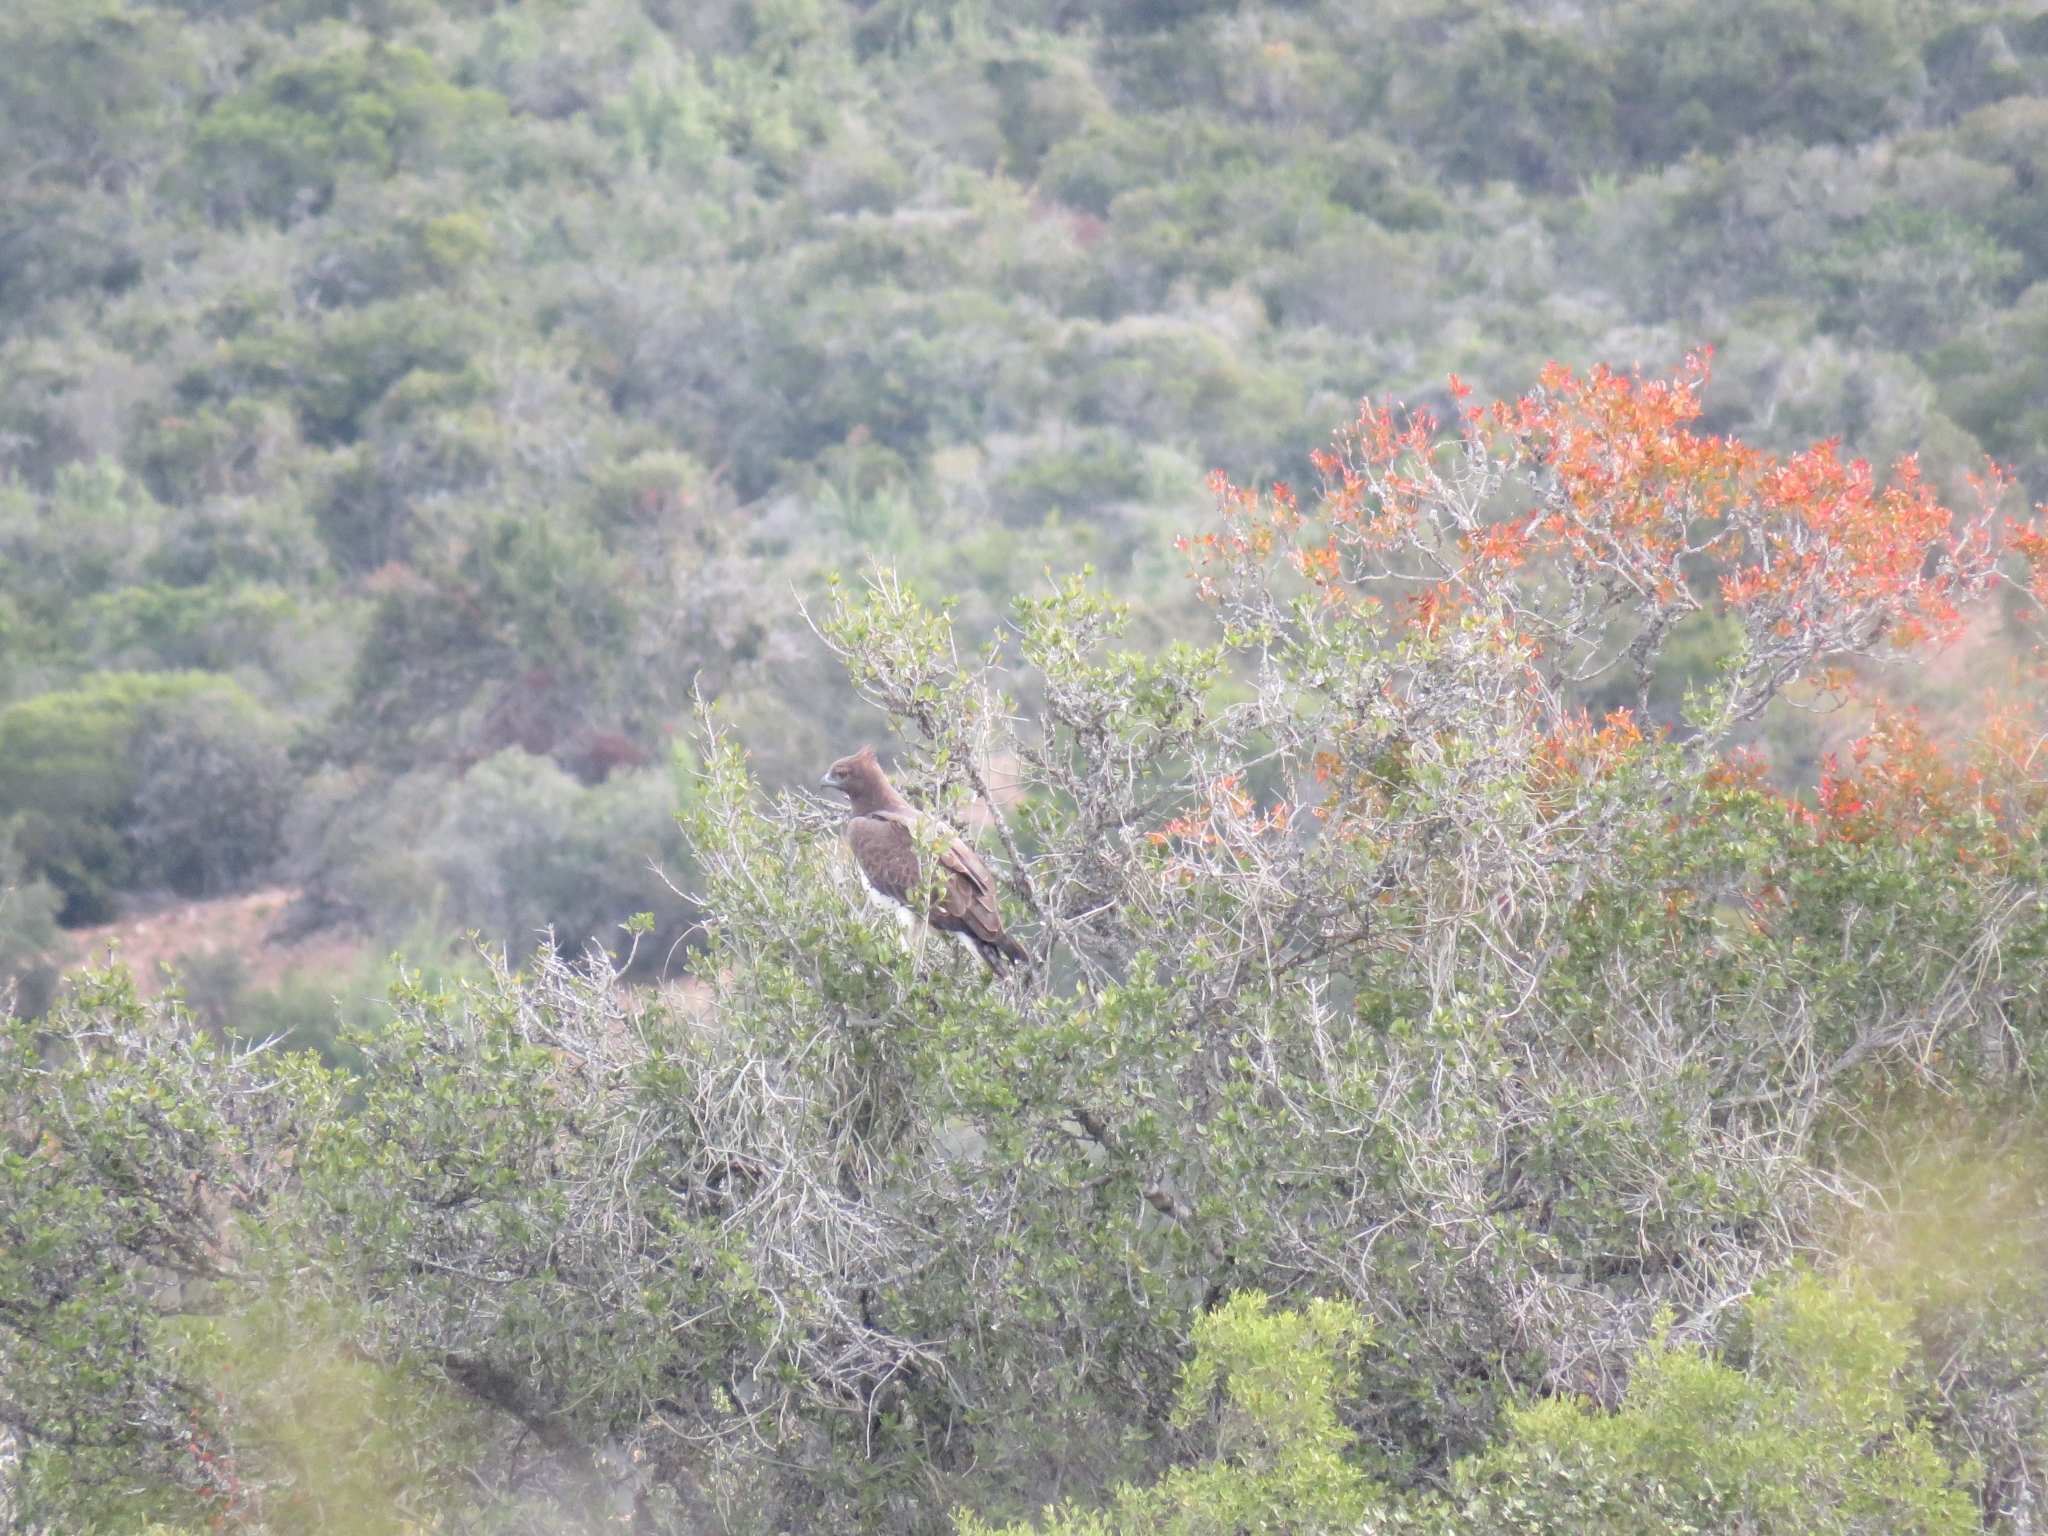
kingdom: Animalia
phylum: Chordata
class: Aves
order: Accipitriformes
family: Accipitridae
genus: Polemaetus
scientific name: Polemaetus bellicosus
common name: Martial eagle
